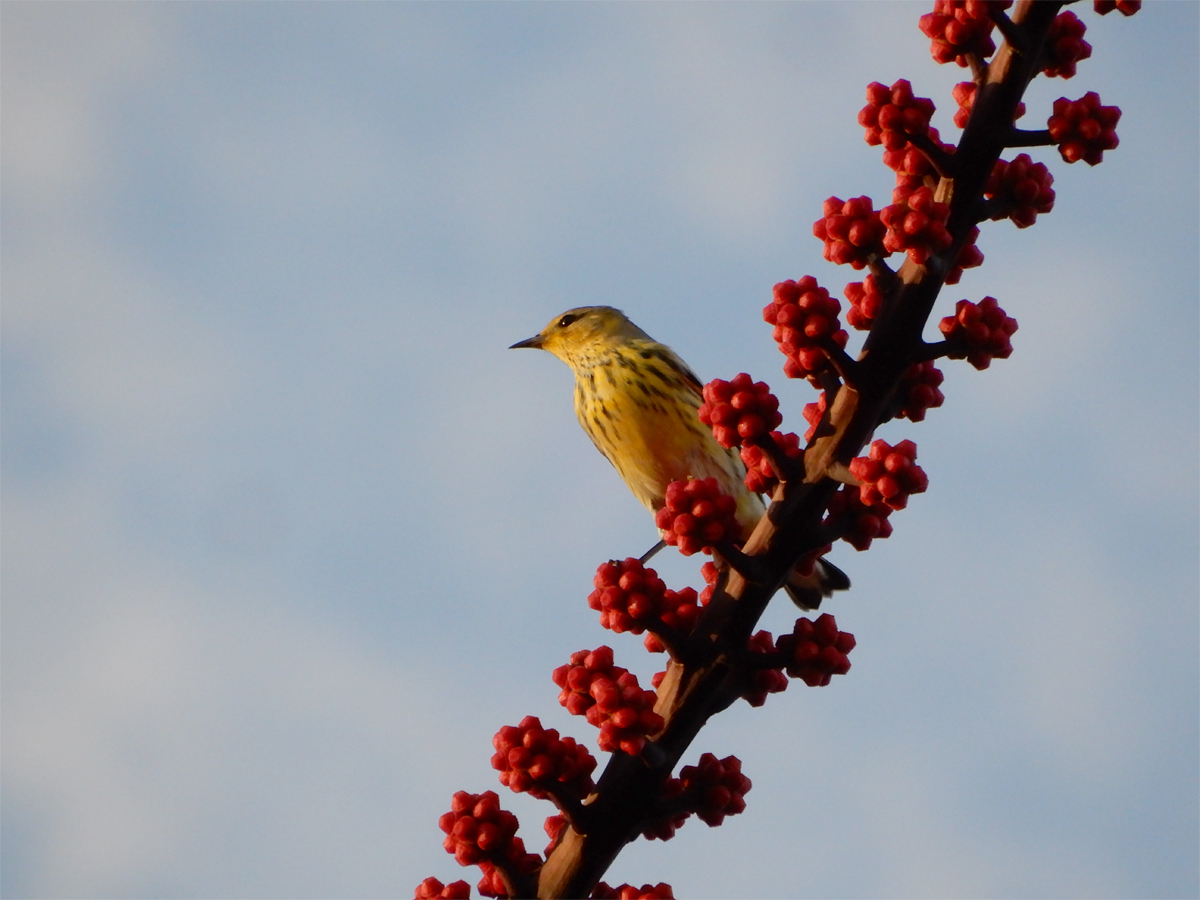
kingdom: Animalia
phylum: Chordata
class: Aves
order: Passeriformes
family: Parulidae
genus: Setophaga
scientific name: Setophaga tigrina
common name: Cape may warbler
